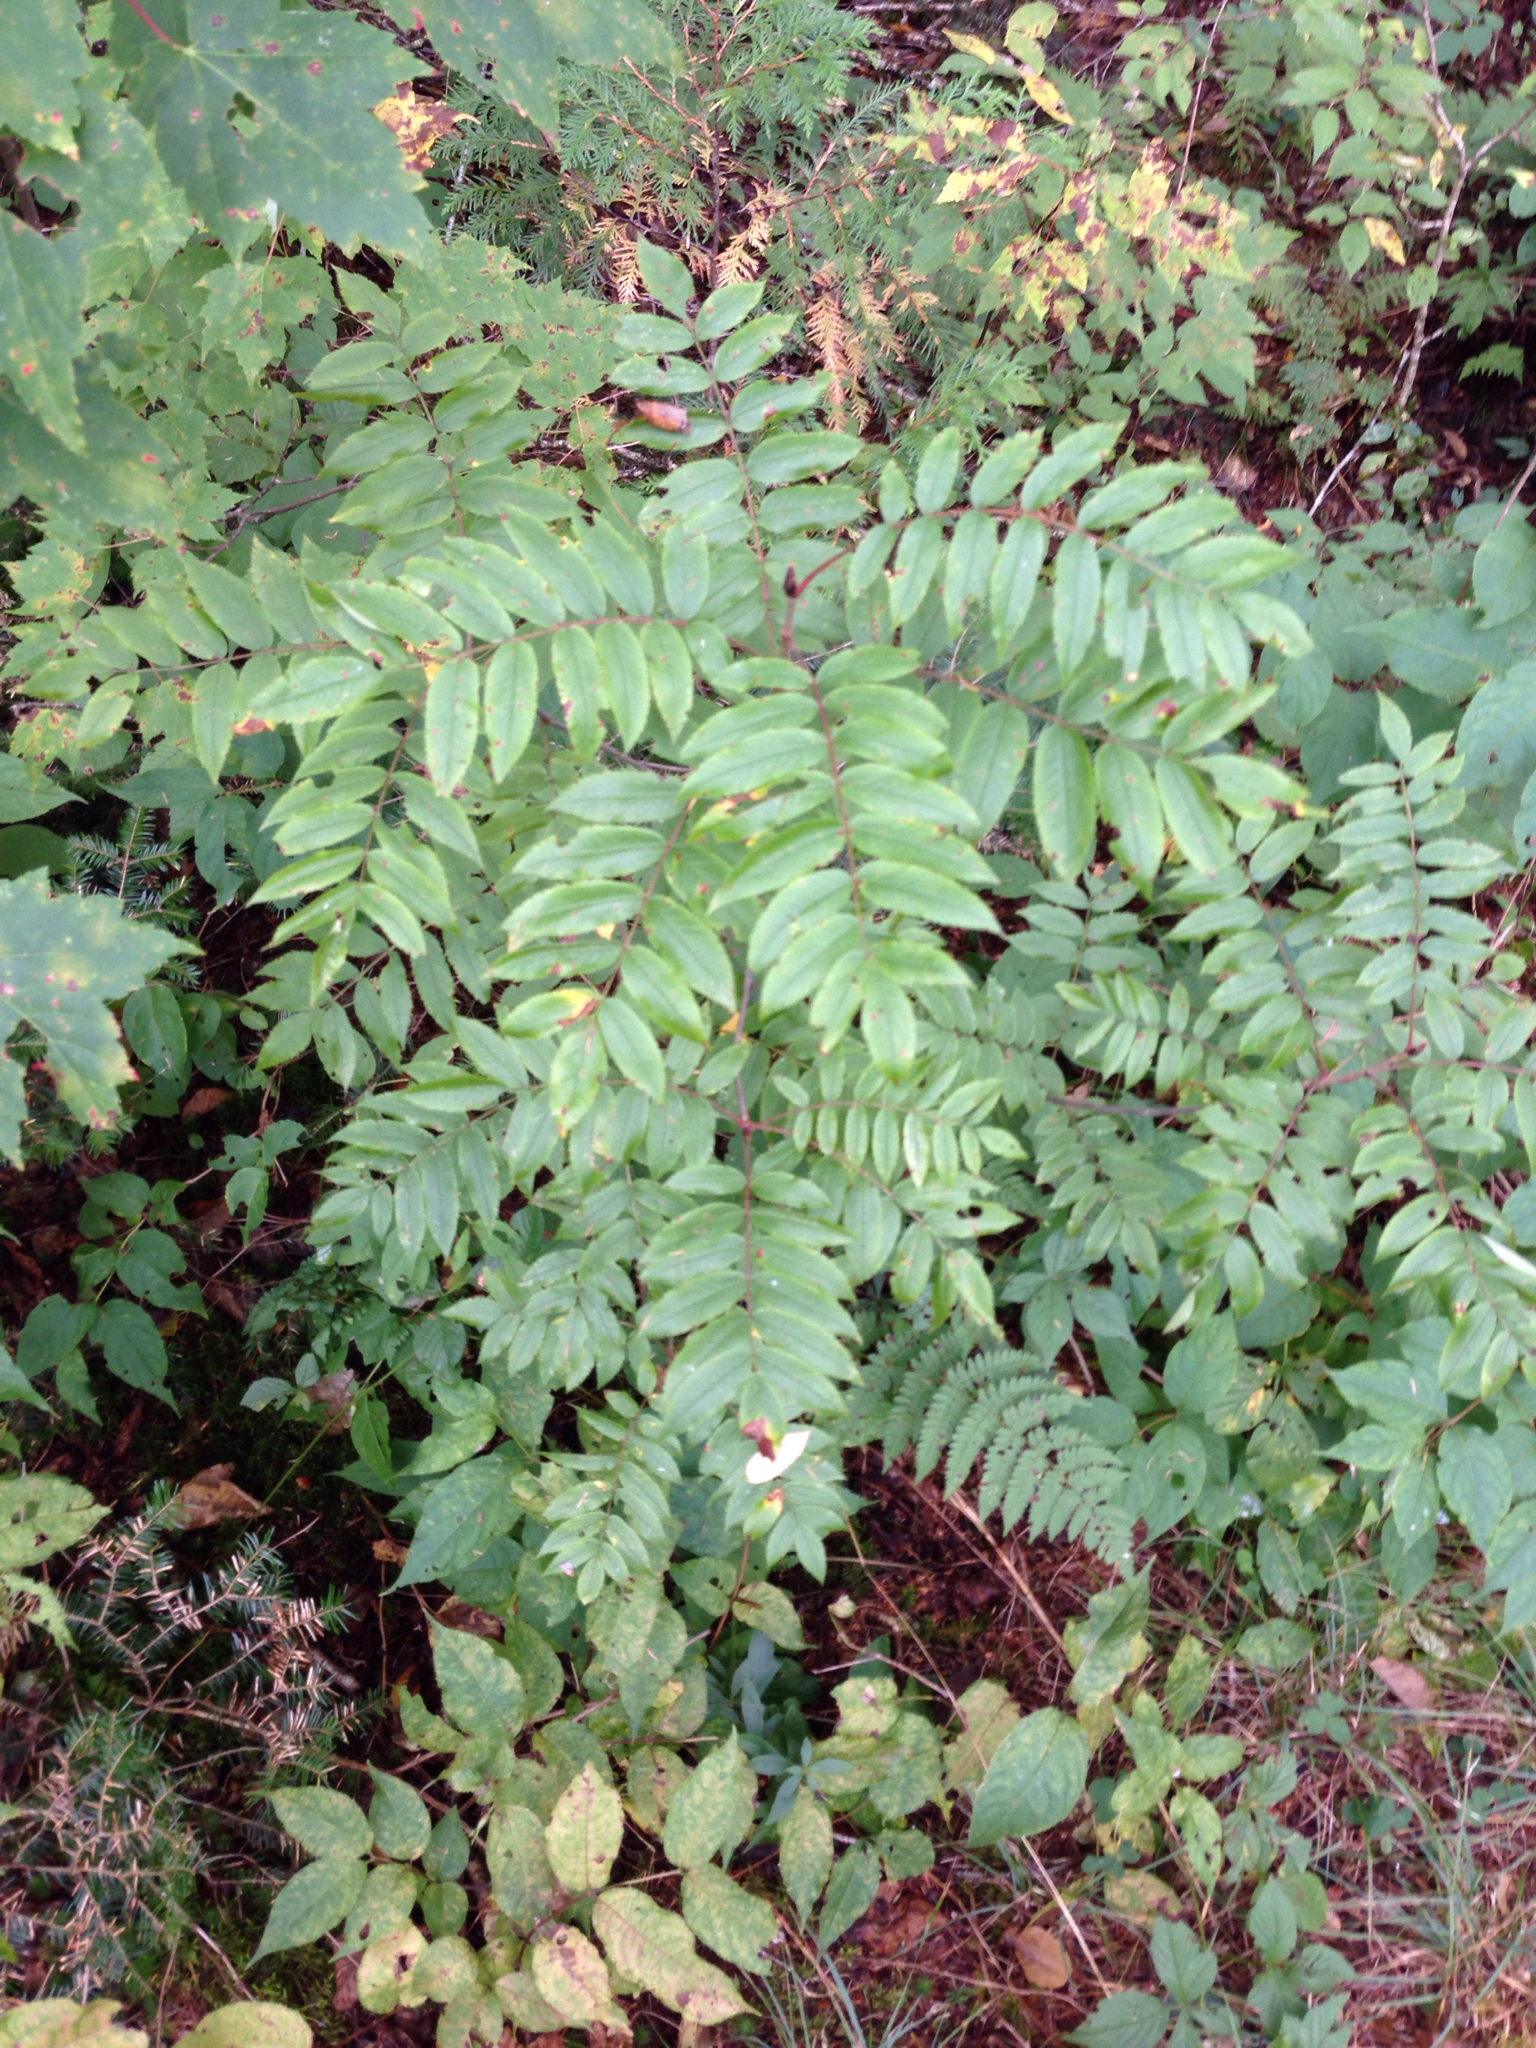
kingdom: Plantae
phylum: Tracheophyta
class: Magnoliopsida
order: Rosales
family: Rosaceae
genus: Sorbus
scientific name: Sorbus americana
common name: American mountain-ash
